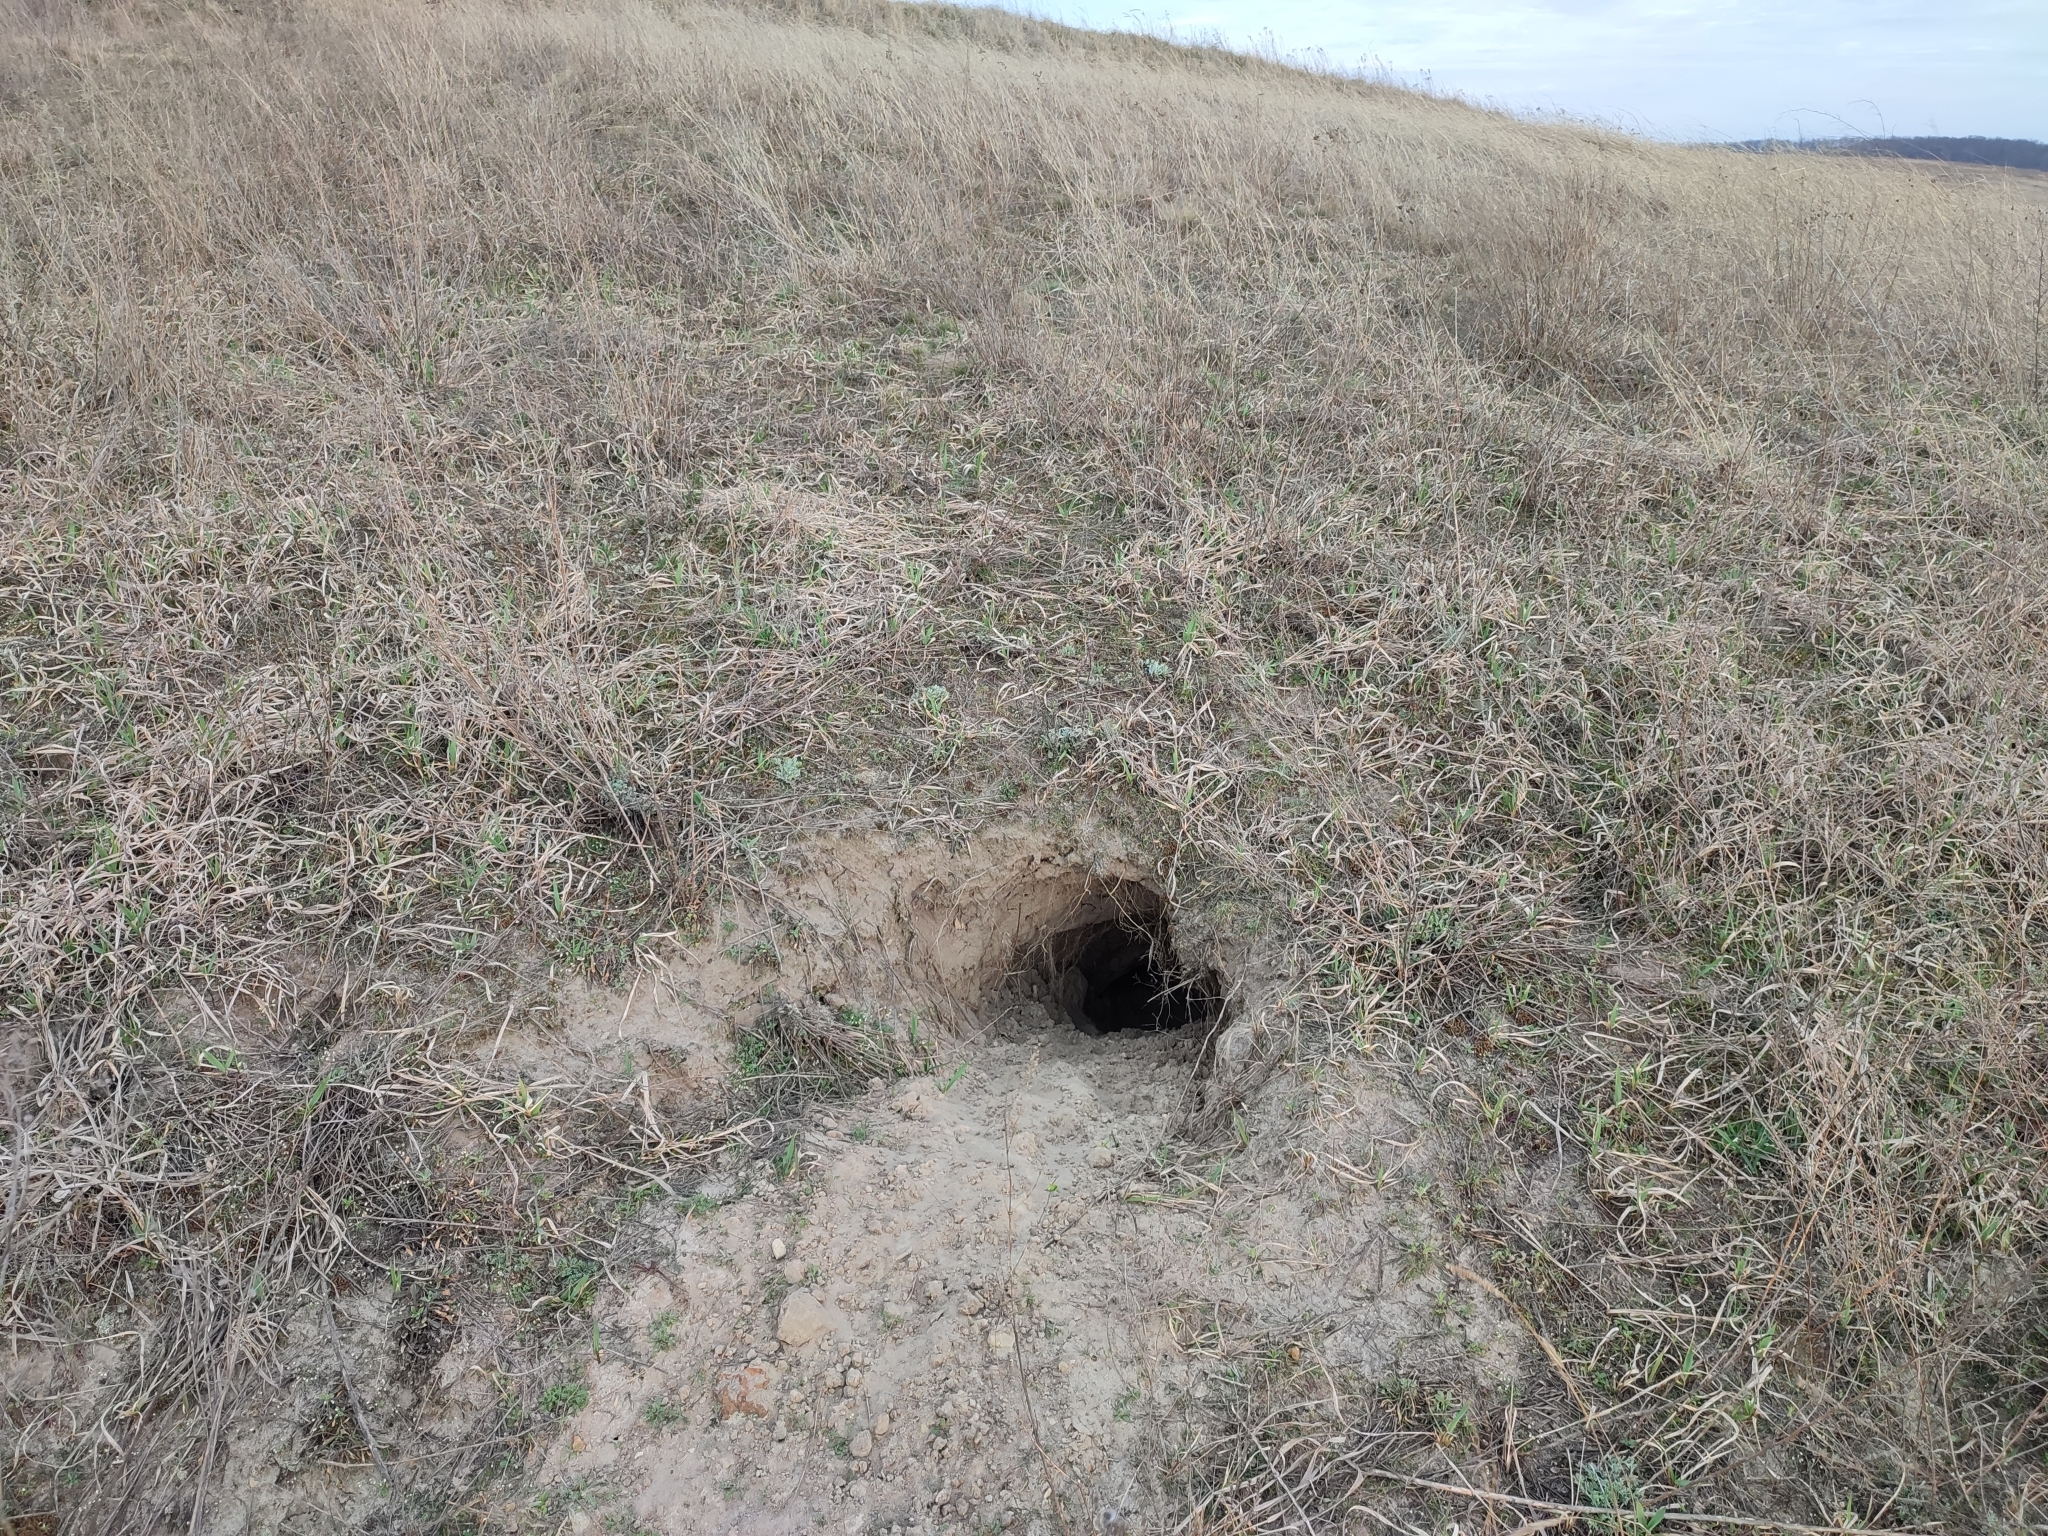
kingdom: Animalia
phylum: Chordata
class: Mammalia
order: Carnivora
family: Mustelidae
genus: Meles
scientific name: Meles meles
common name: Eurasian badger
